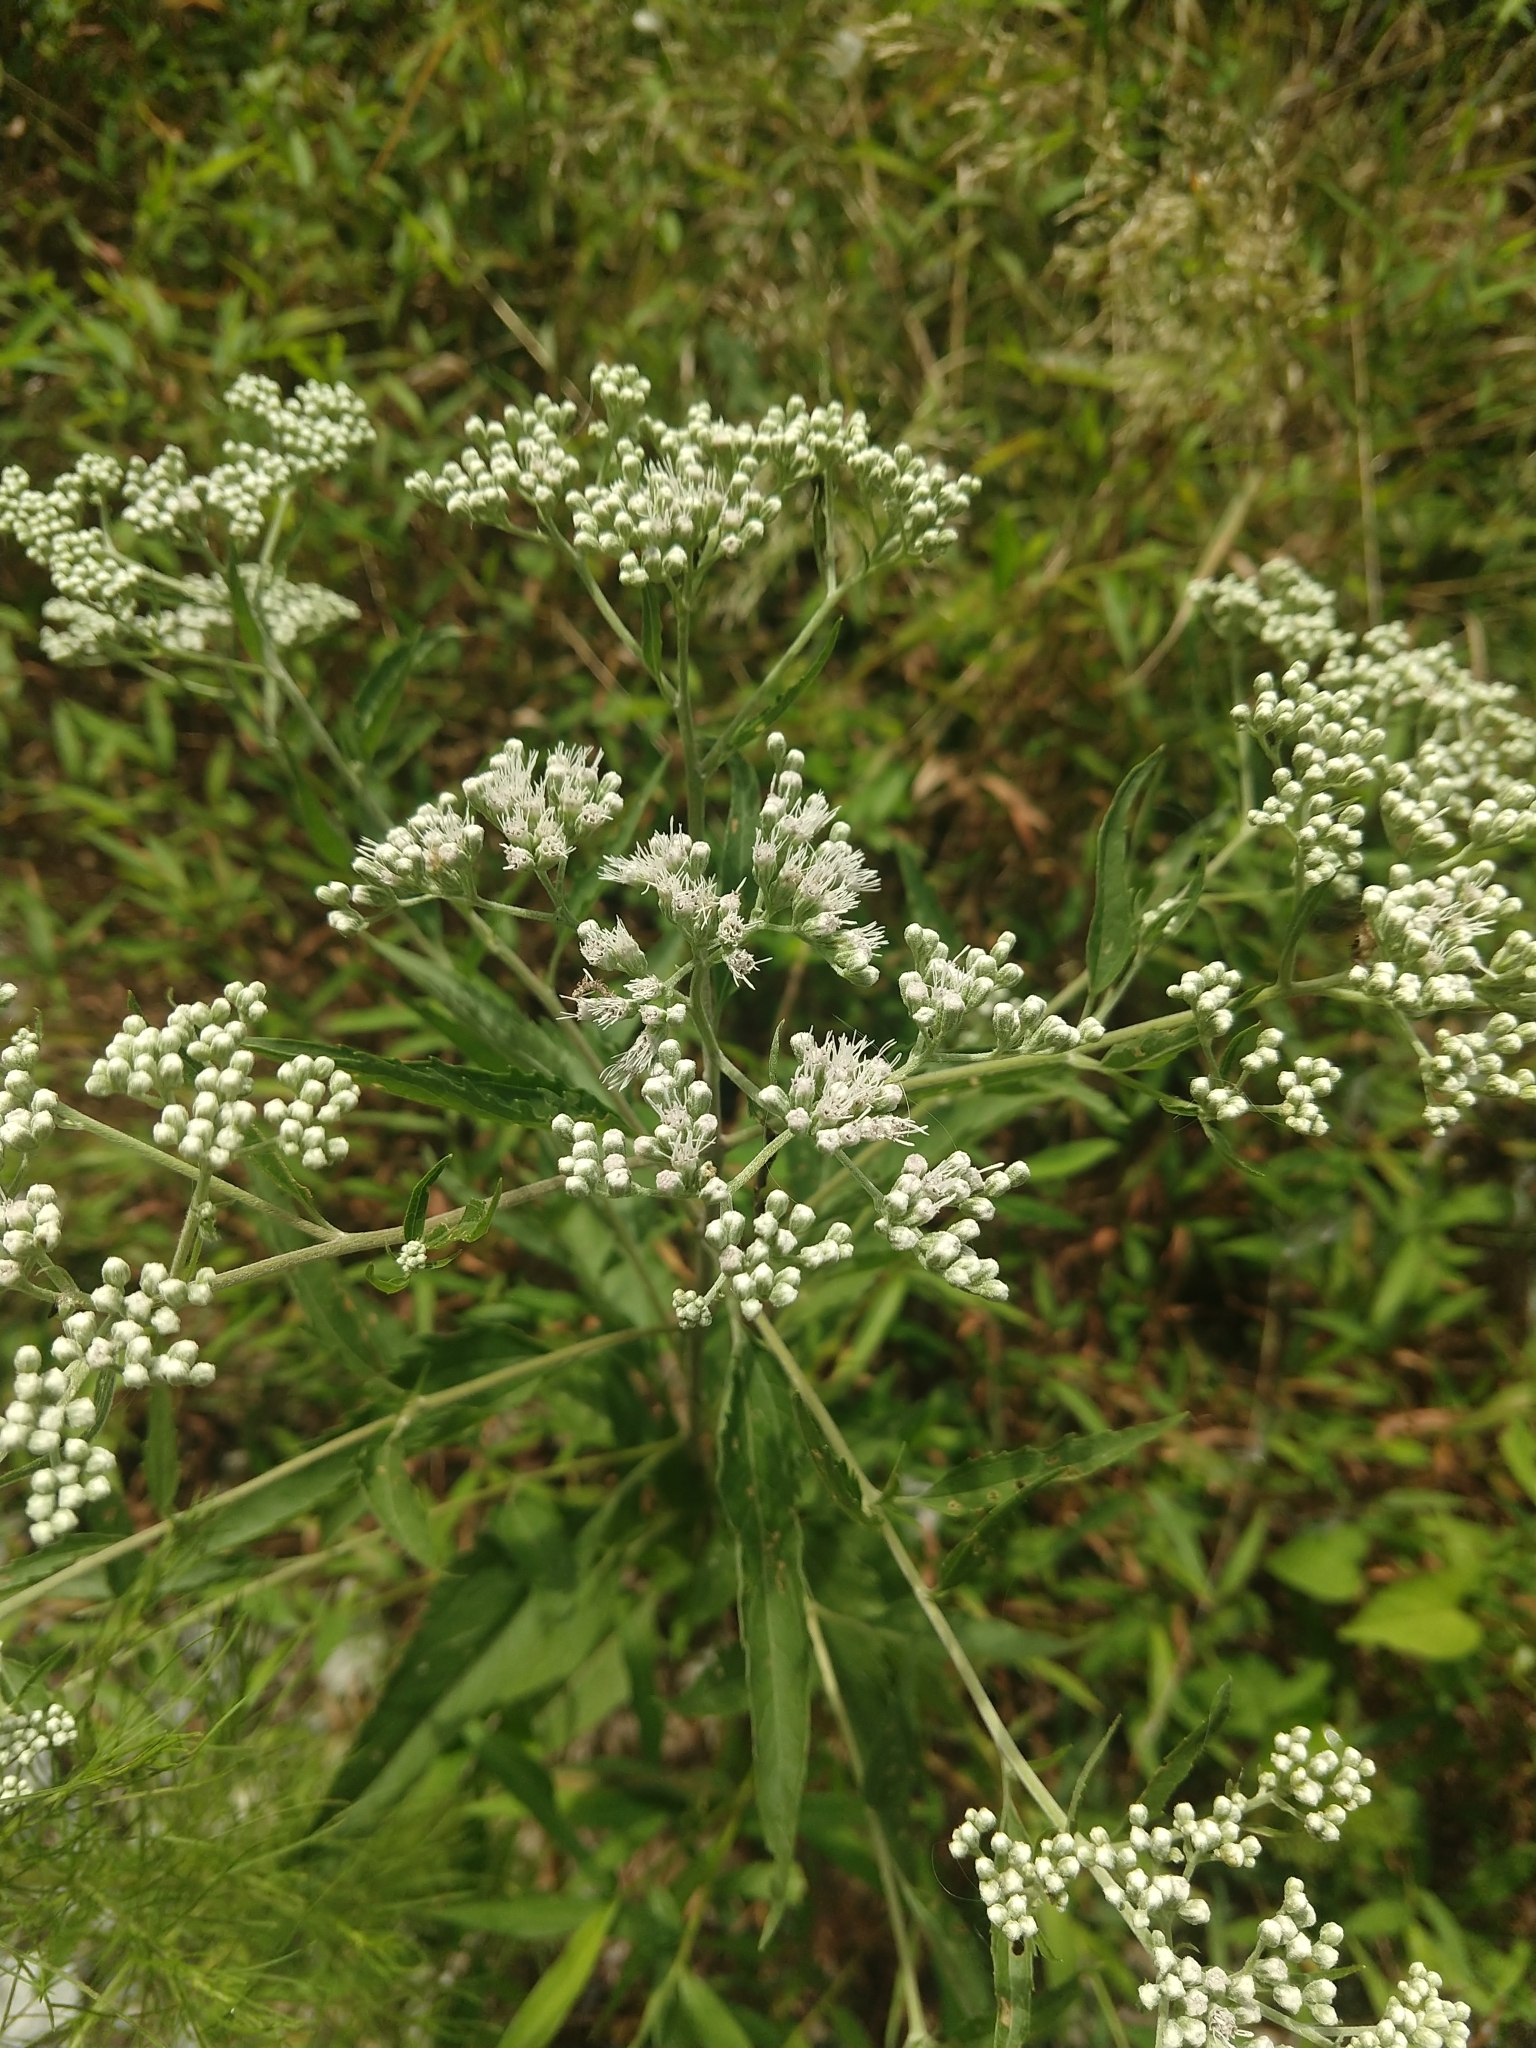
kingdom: Plantae
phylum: Tracheophyta
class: Magnoliopsida
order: Asterales
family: Asteraceae
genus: Eupatorium
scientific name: Eupatorium serotinum
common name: Late boneset
